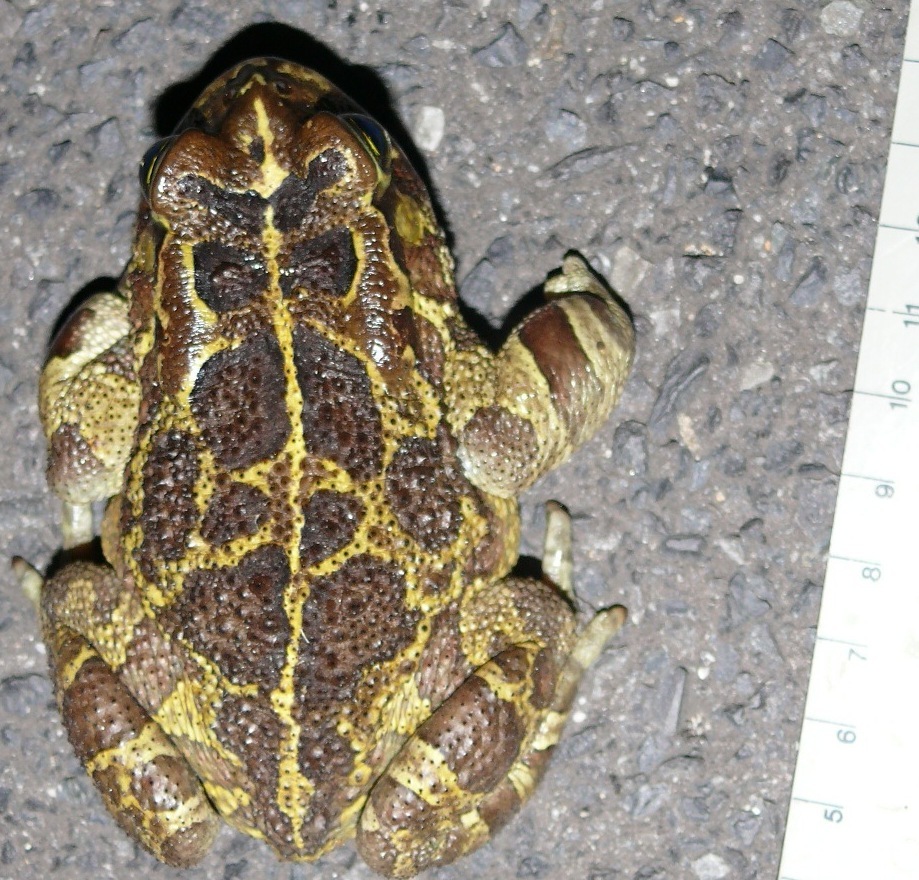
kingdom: Animalia
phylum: Chordata
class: Amphibia
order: Anura
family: Bufonidae
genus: Sclerophrys
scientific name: Sclerophrys pantherina
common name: Panther toad
